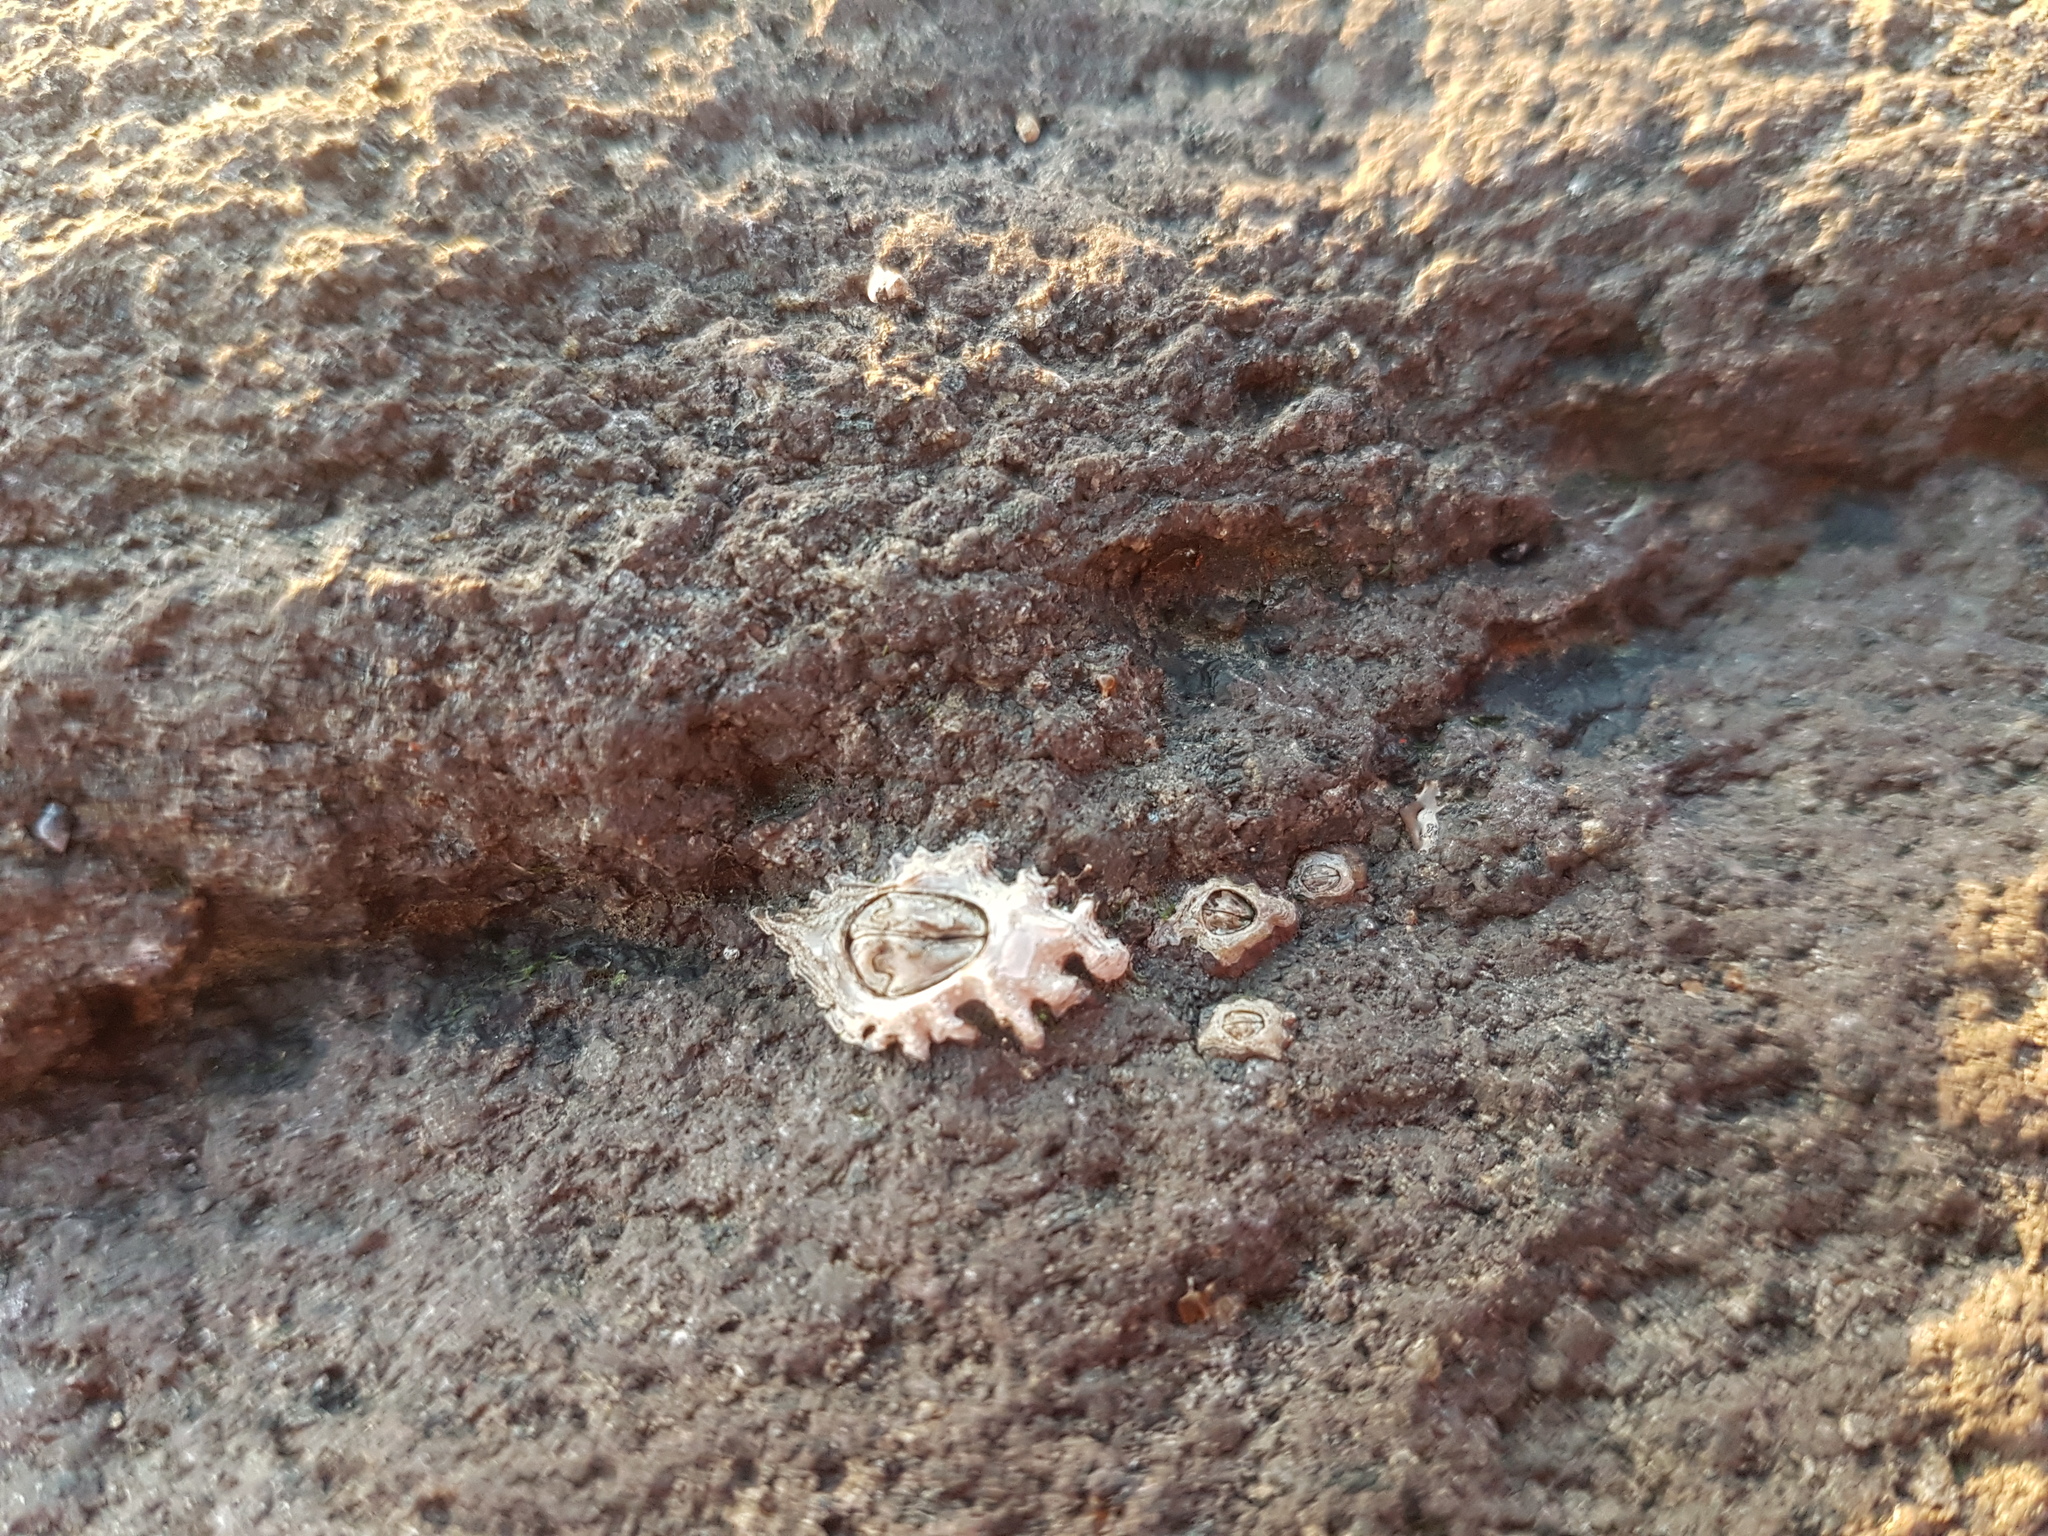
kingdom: Animalia
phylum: Arthropoda
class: Maxillopoda
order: Sessilia
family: Chthamalidae
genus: Chamaesipho
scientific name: Chamaesipho brunnea
